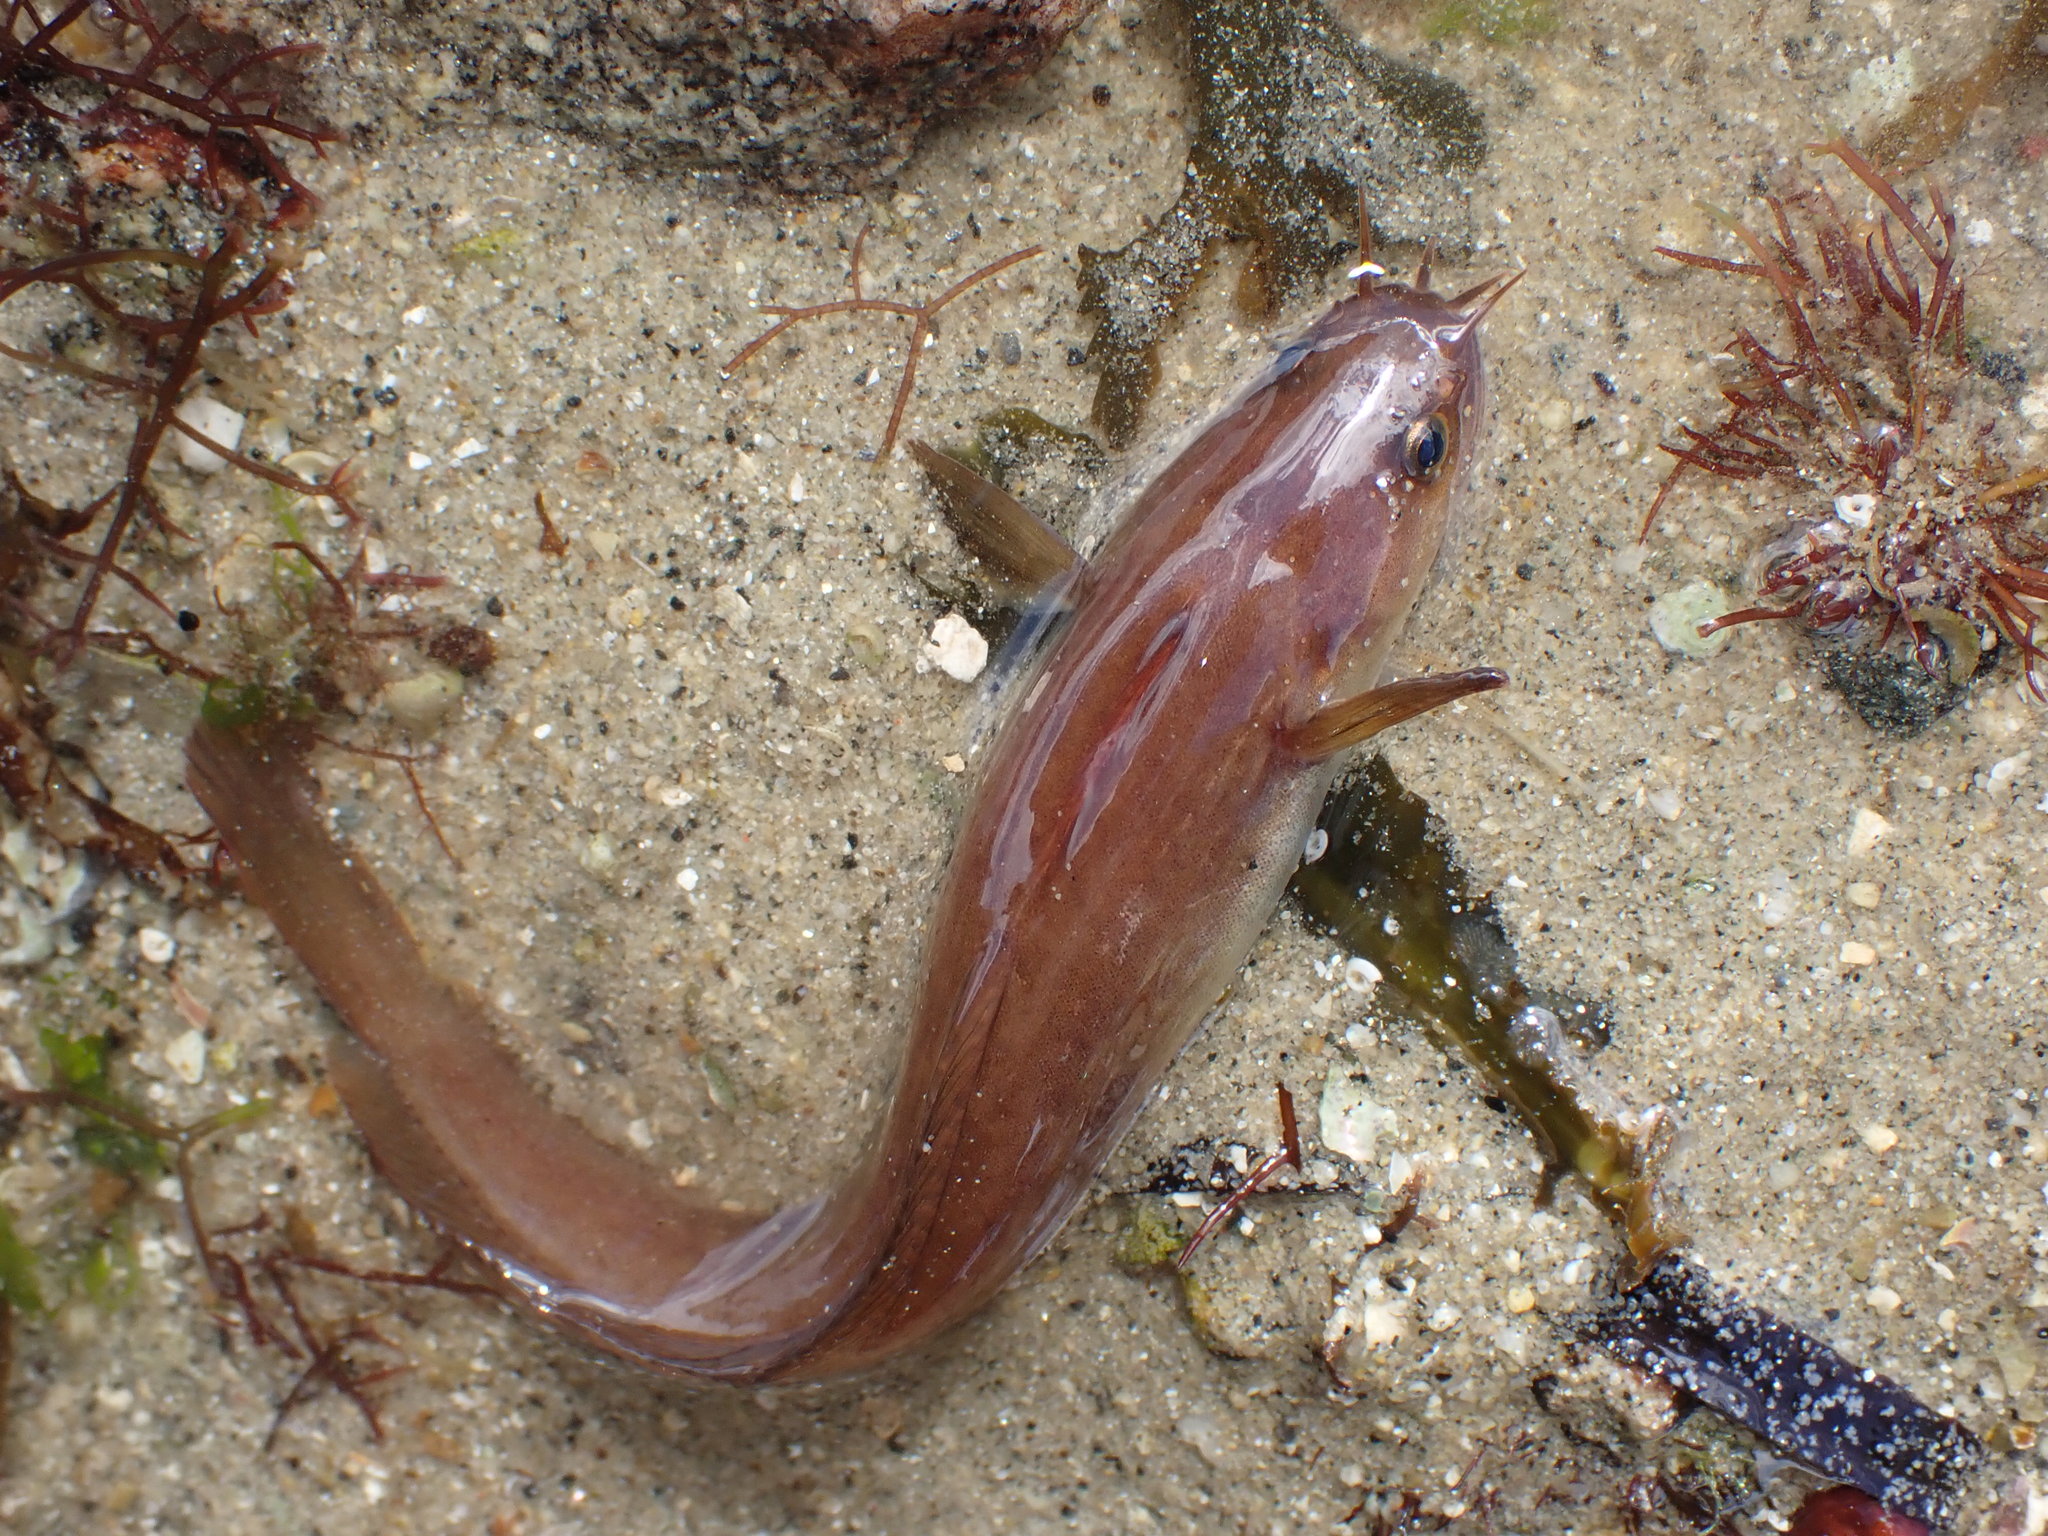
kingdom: Animalia
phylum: Chordata
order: Gadiformes
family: Lotidae
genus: Ciliata
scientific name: Ciliata mustela
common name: Five-bearded rockling
